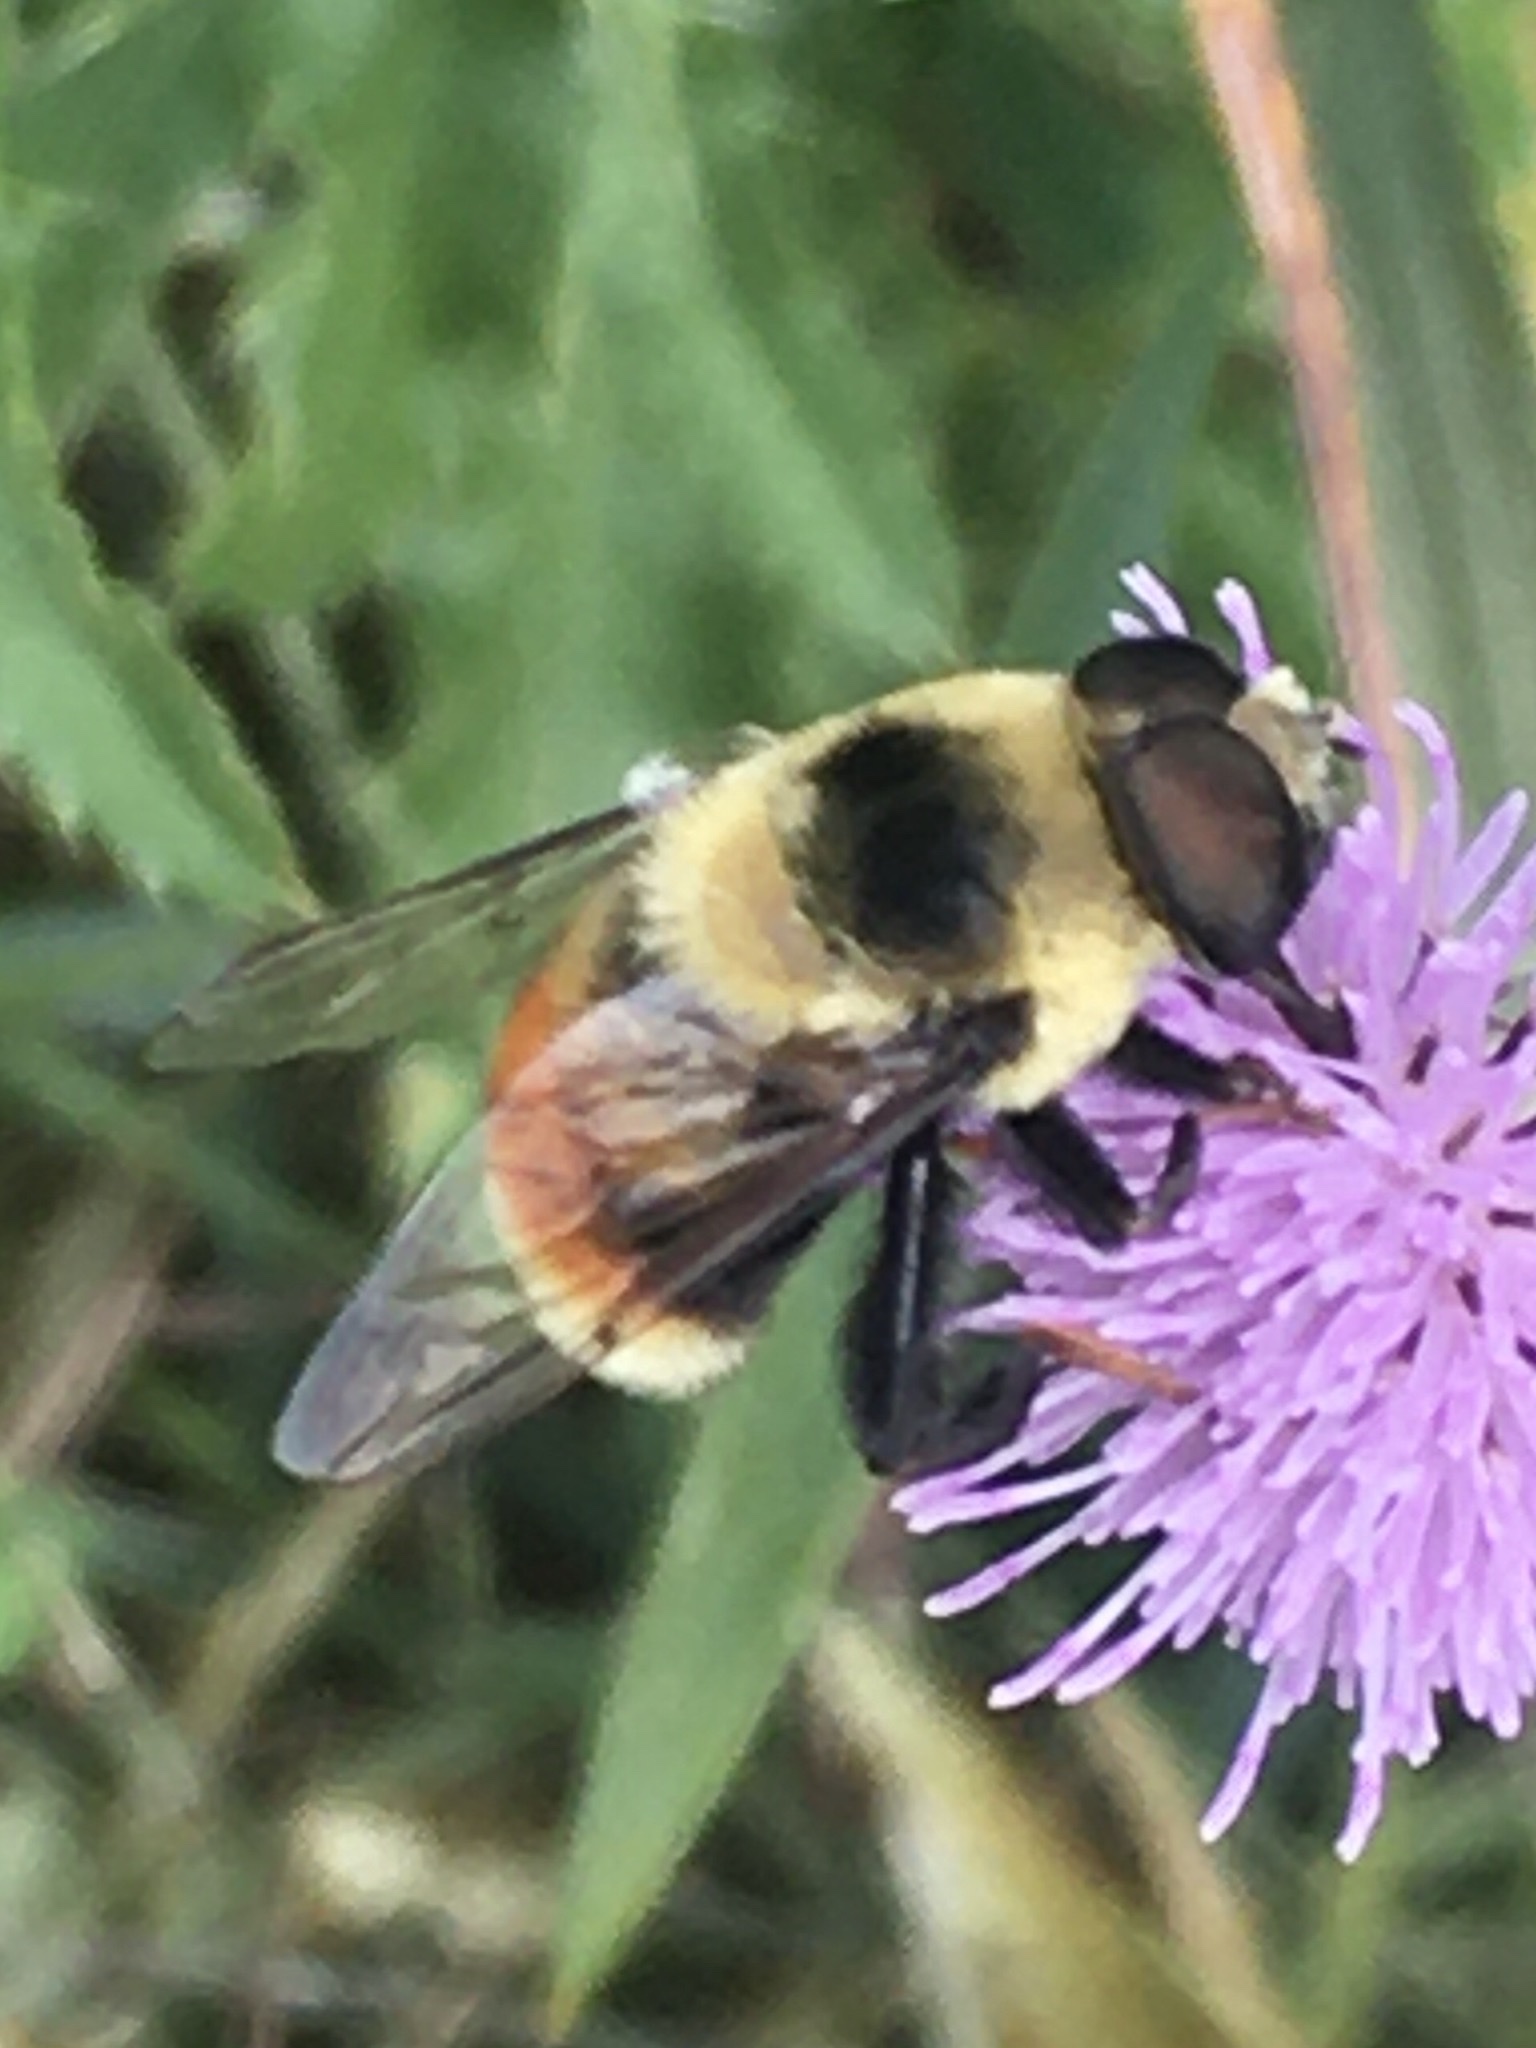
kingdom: Animalia
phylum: Arthropoda
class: Insecta
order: Diptera
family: Syrphidae
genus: Eristalis
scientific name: Eristalis flavipes
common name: Orange-legged drone fly
